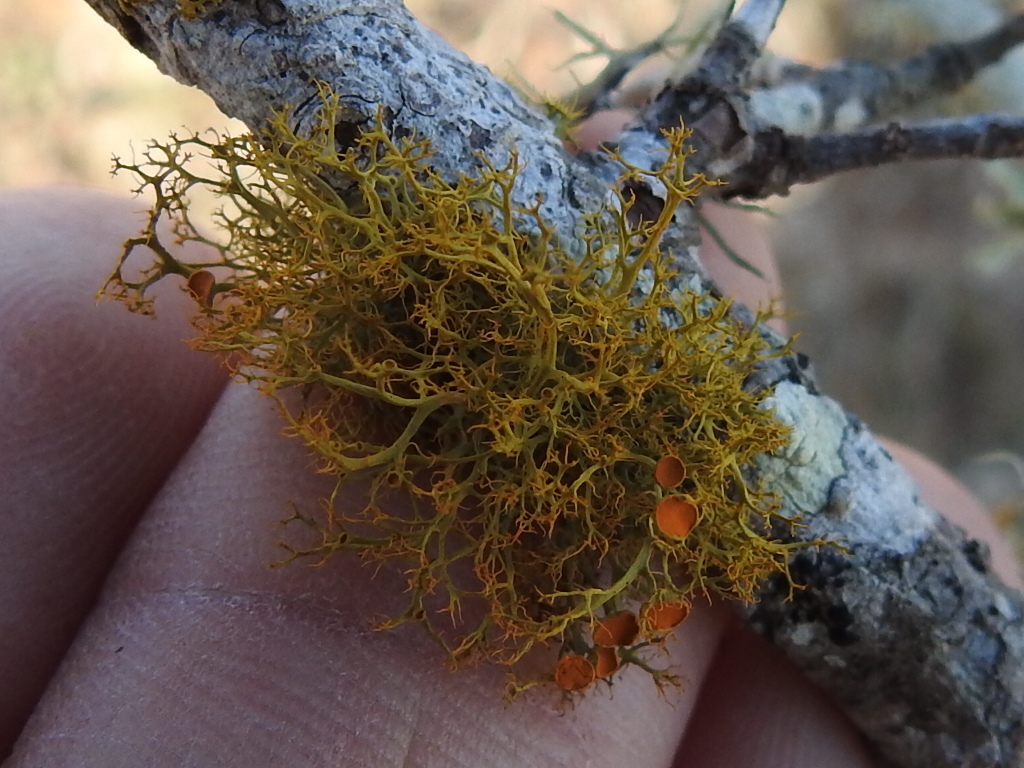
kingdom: Fungi
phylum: Ascomycota
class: Lecanoromycetes
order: Teloschistales
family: Teloschistaceae
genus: Teloschistes
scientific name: Teloschistes exilis
